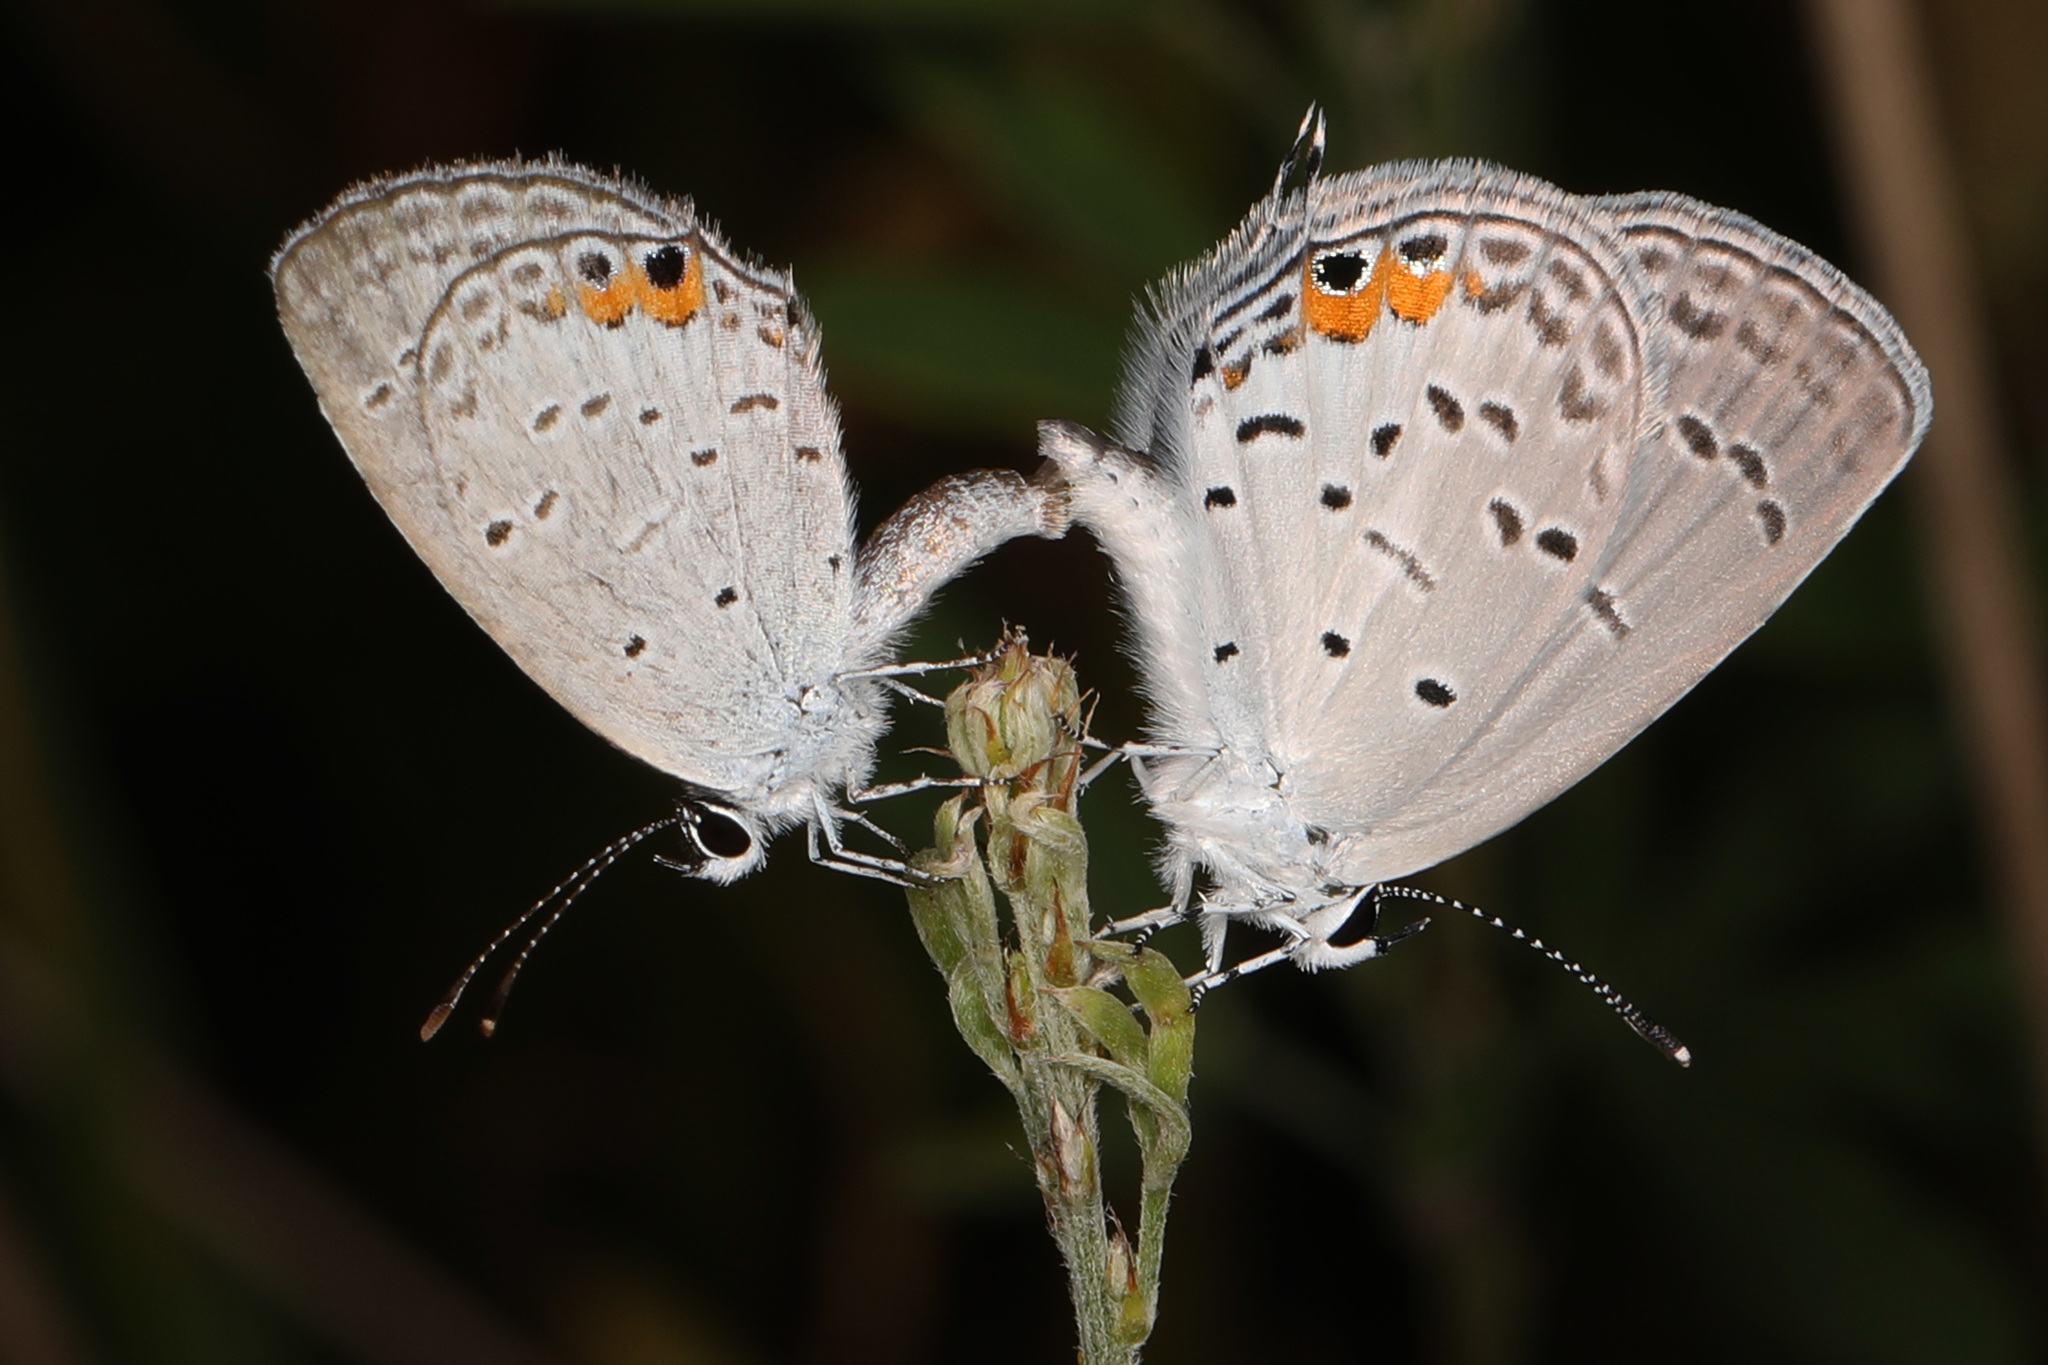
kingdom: Animalia
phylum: Arthropoda
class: Insecta
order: Lepidoptera
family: Lycaenidae
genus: Elkalyce
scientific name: Elkalyce comyntas
